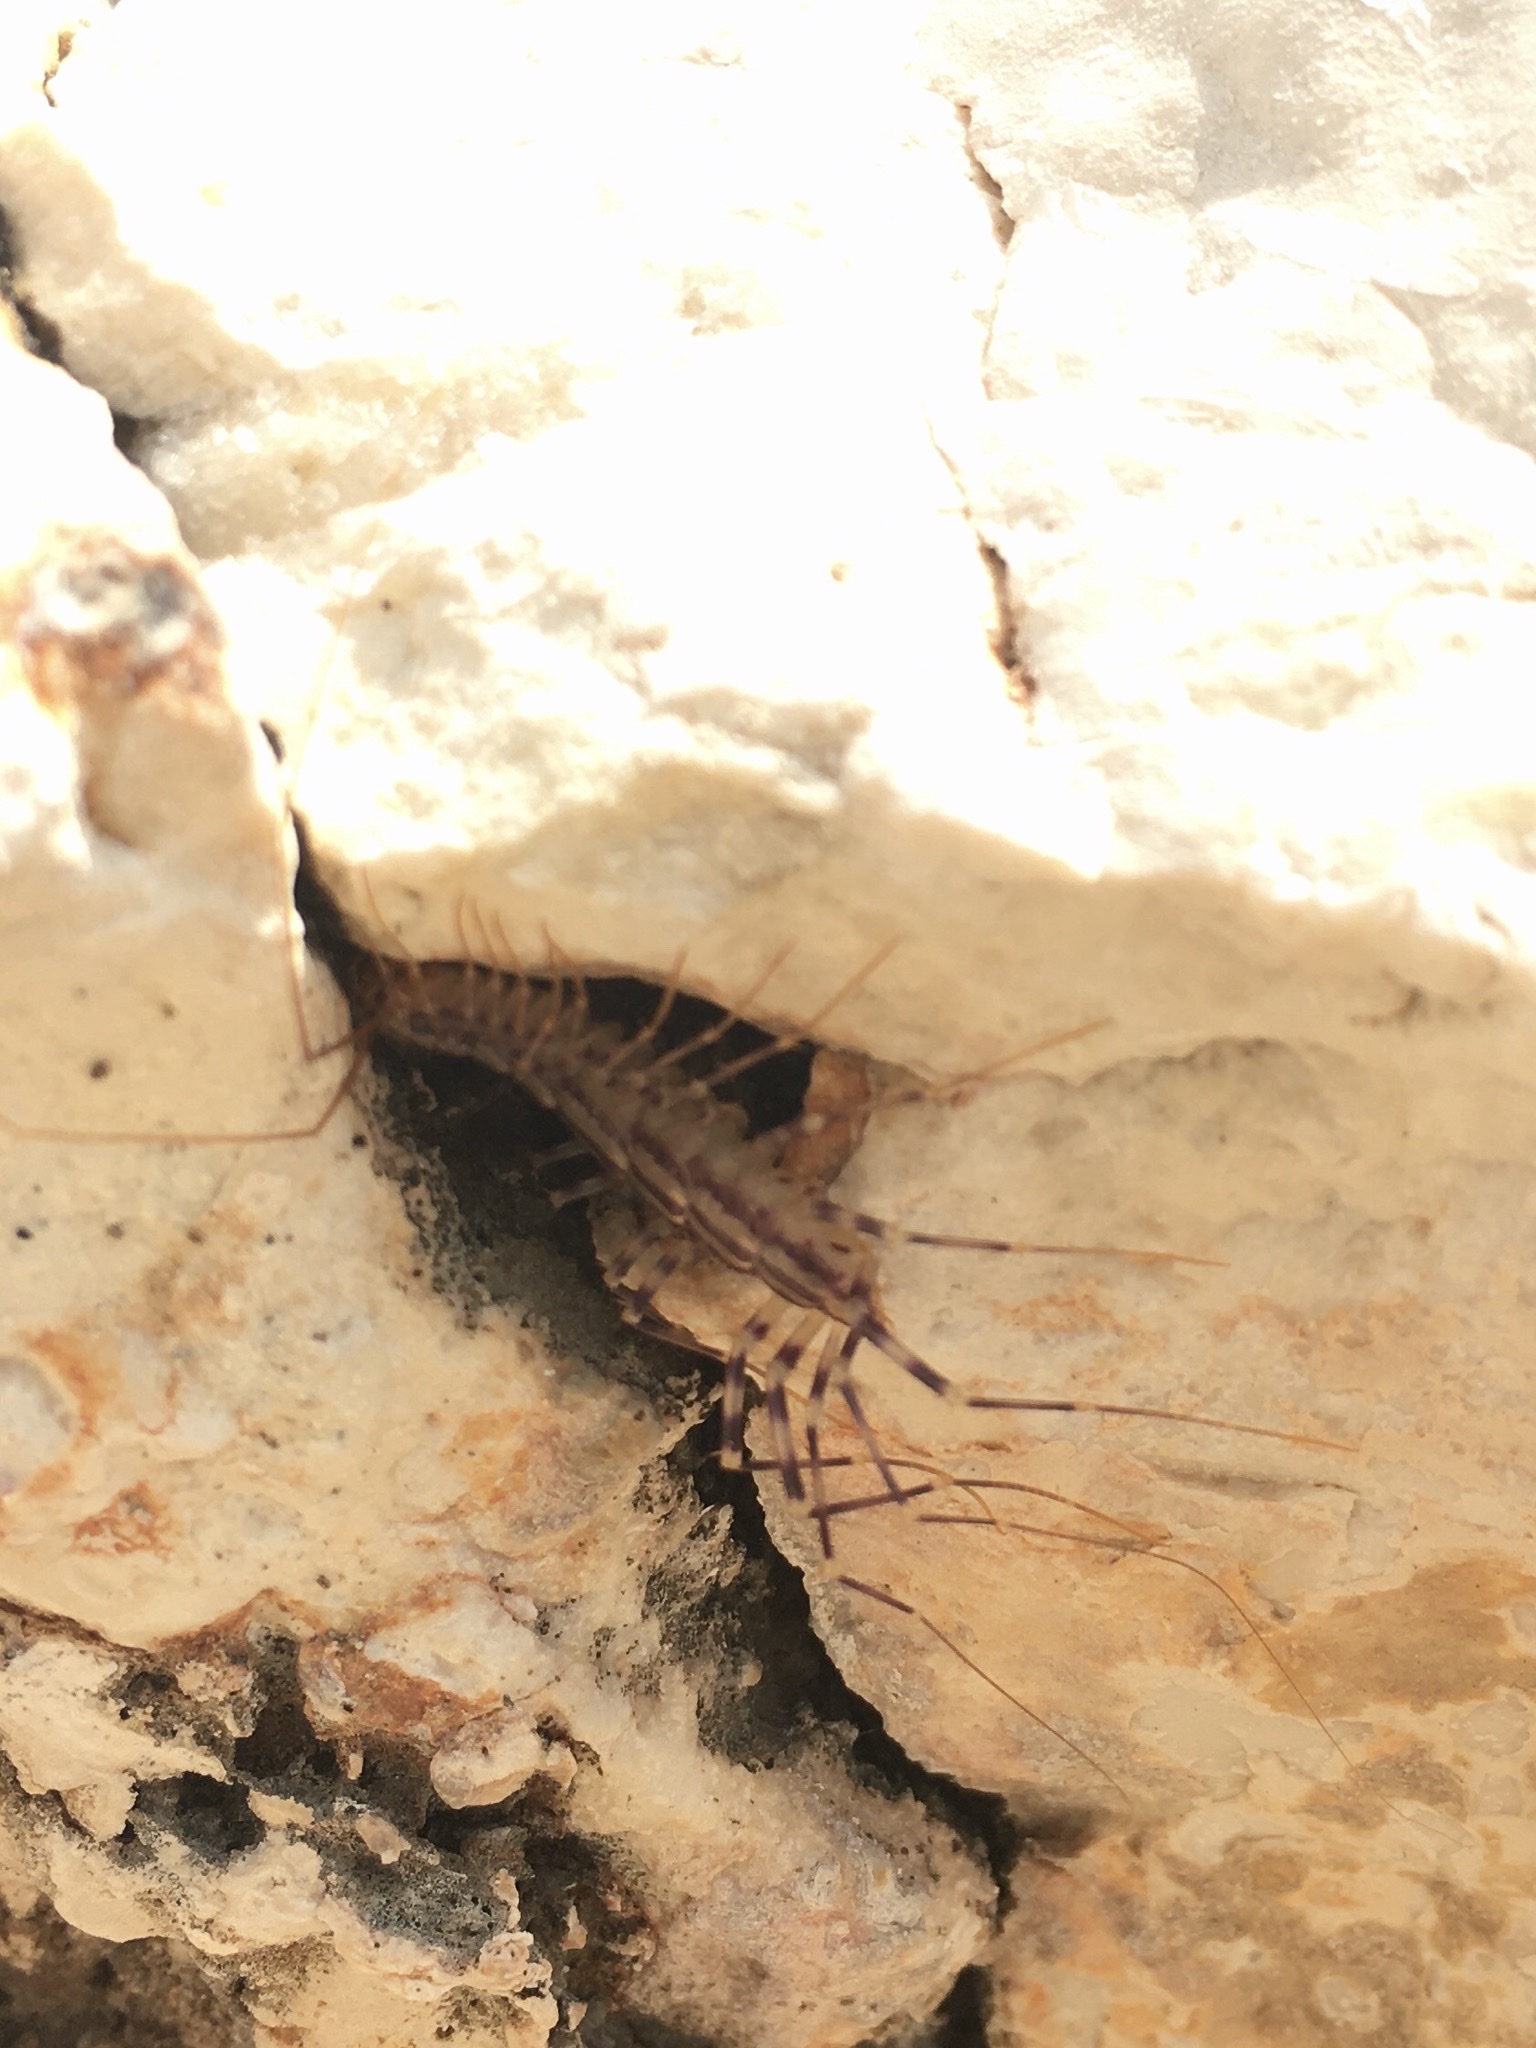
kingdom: Animalia
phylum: Arthropoda
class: Chilopoda
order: Scutigeromorpha
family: Scutigeridae
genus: Scutigera
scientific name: Scutigera coleoptrata
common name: House centipede
